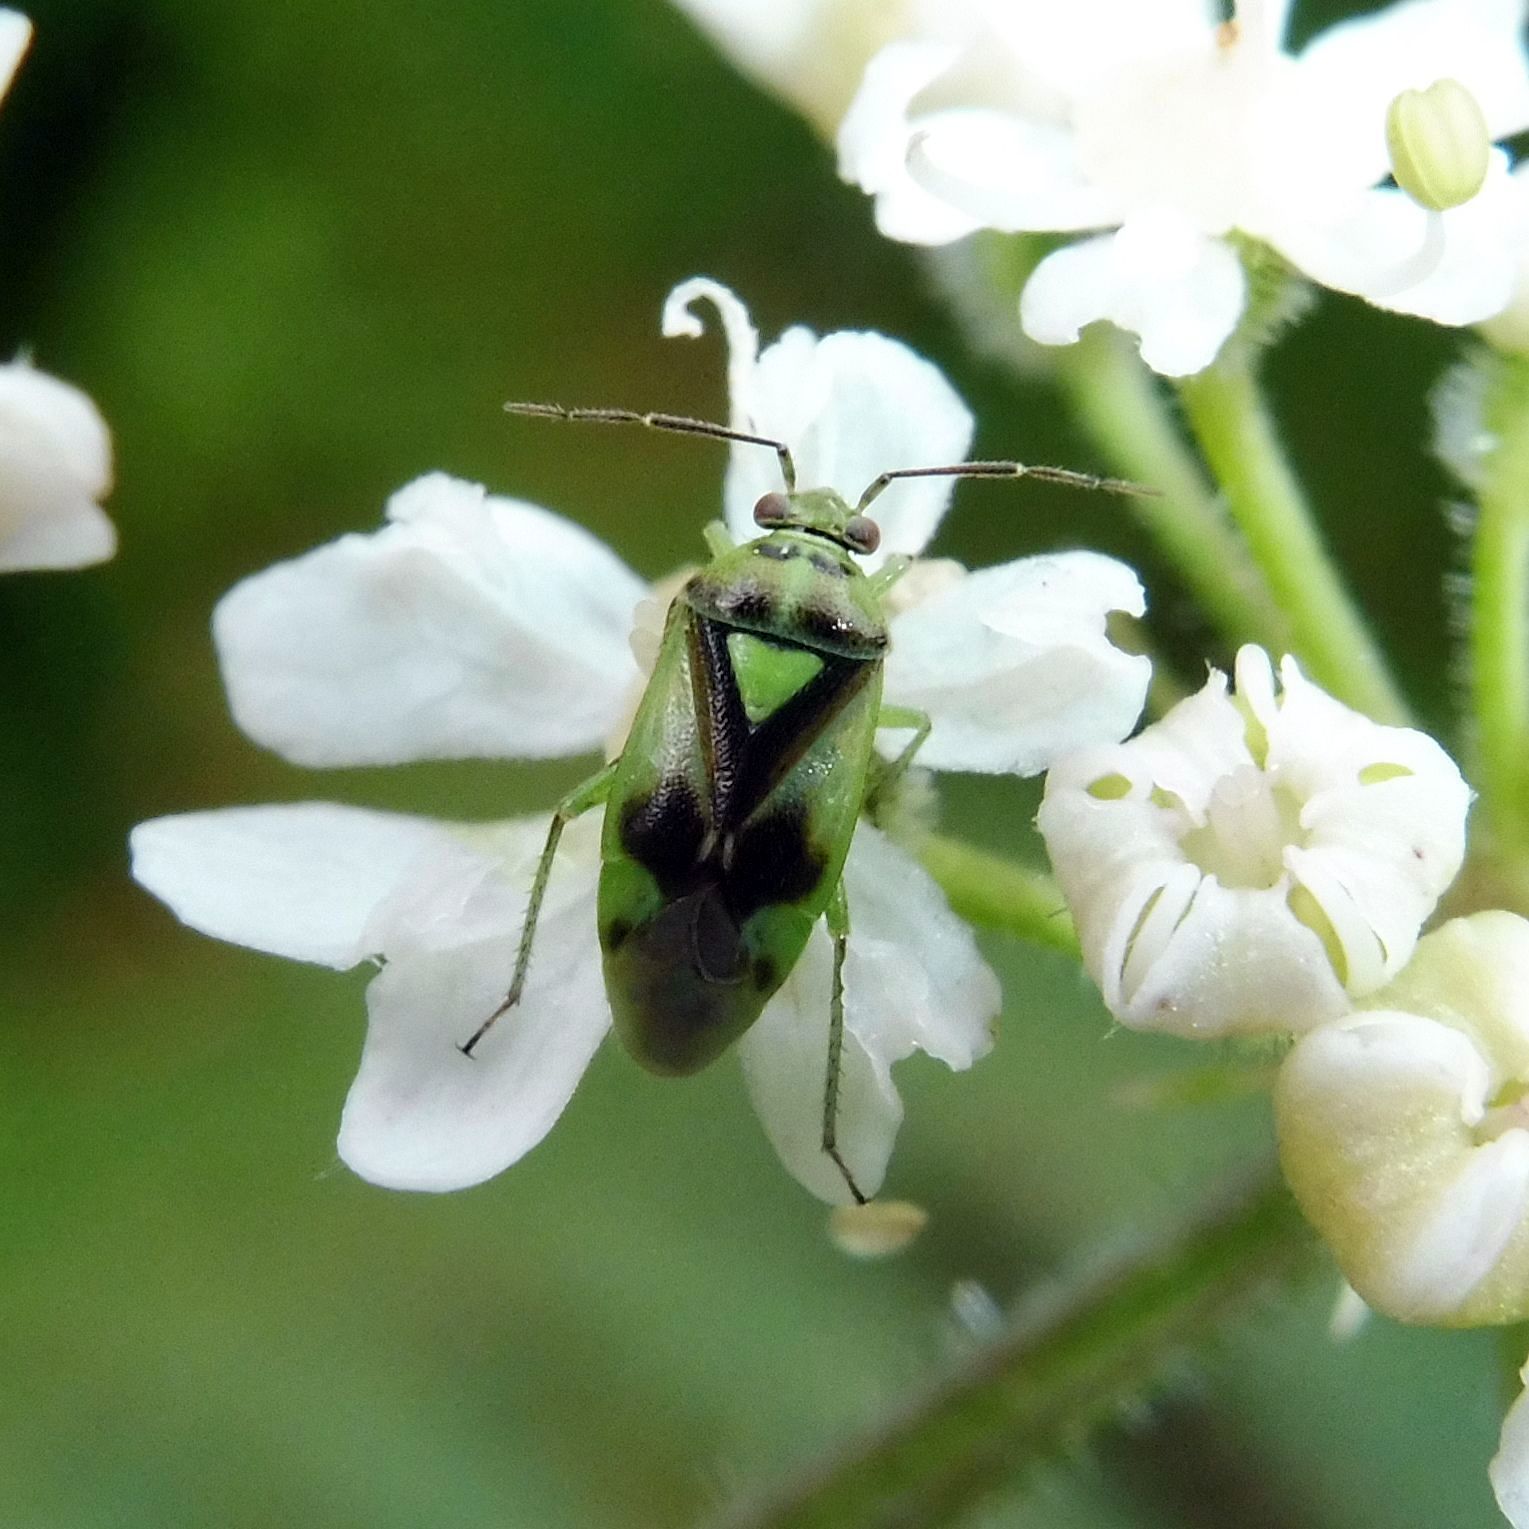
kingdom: Animalia
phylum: Arthropoda
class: Insecta
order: Hemiptera
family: Miridae
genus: Orthops
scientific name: Orthops campestris
